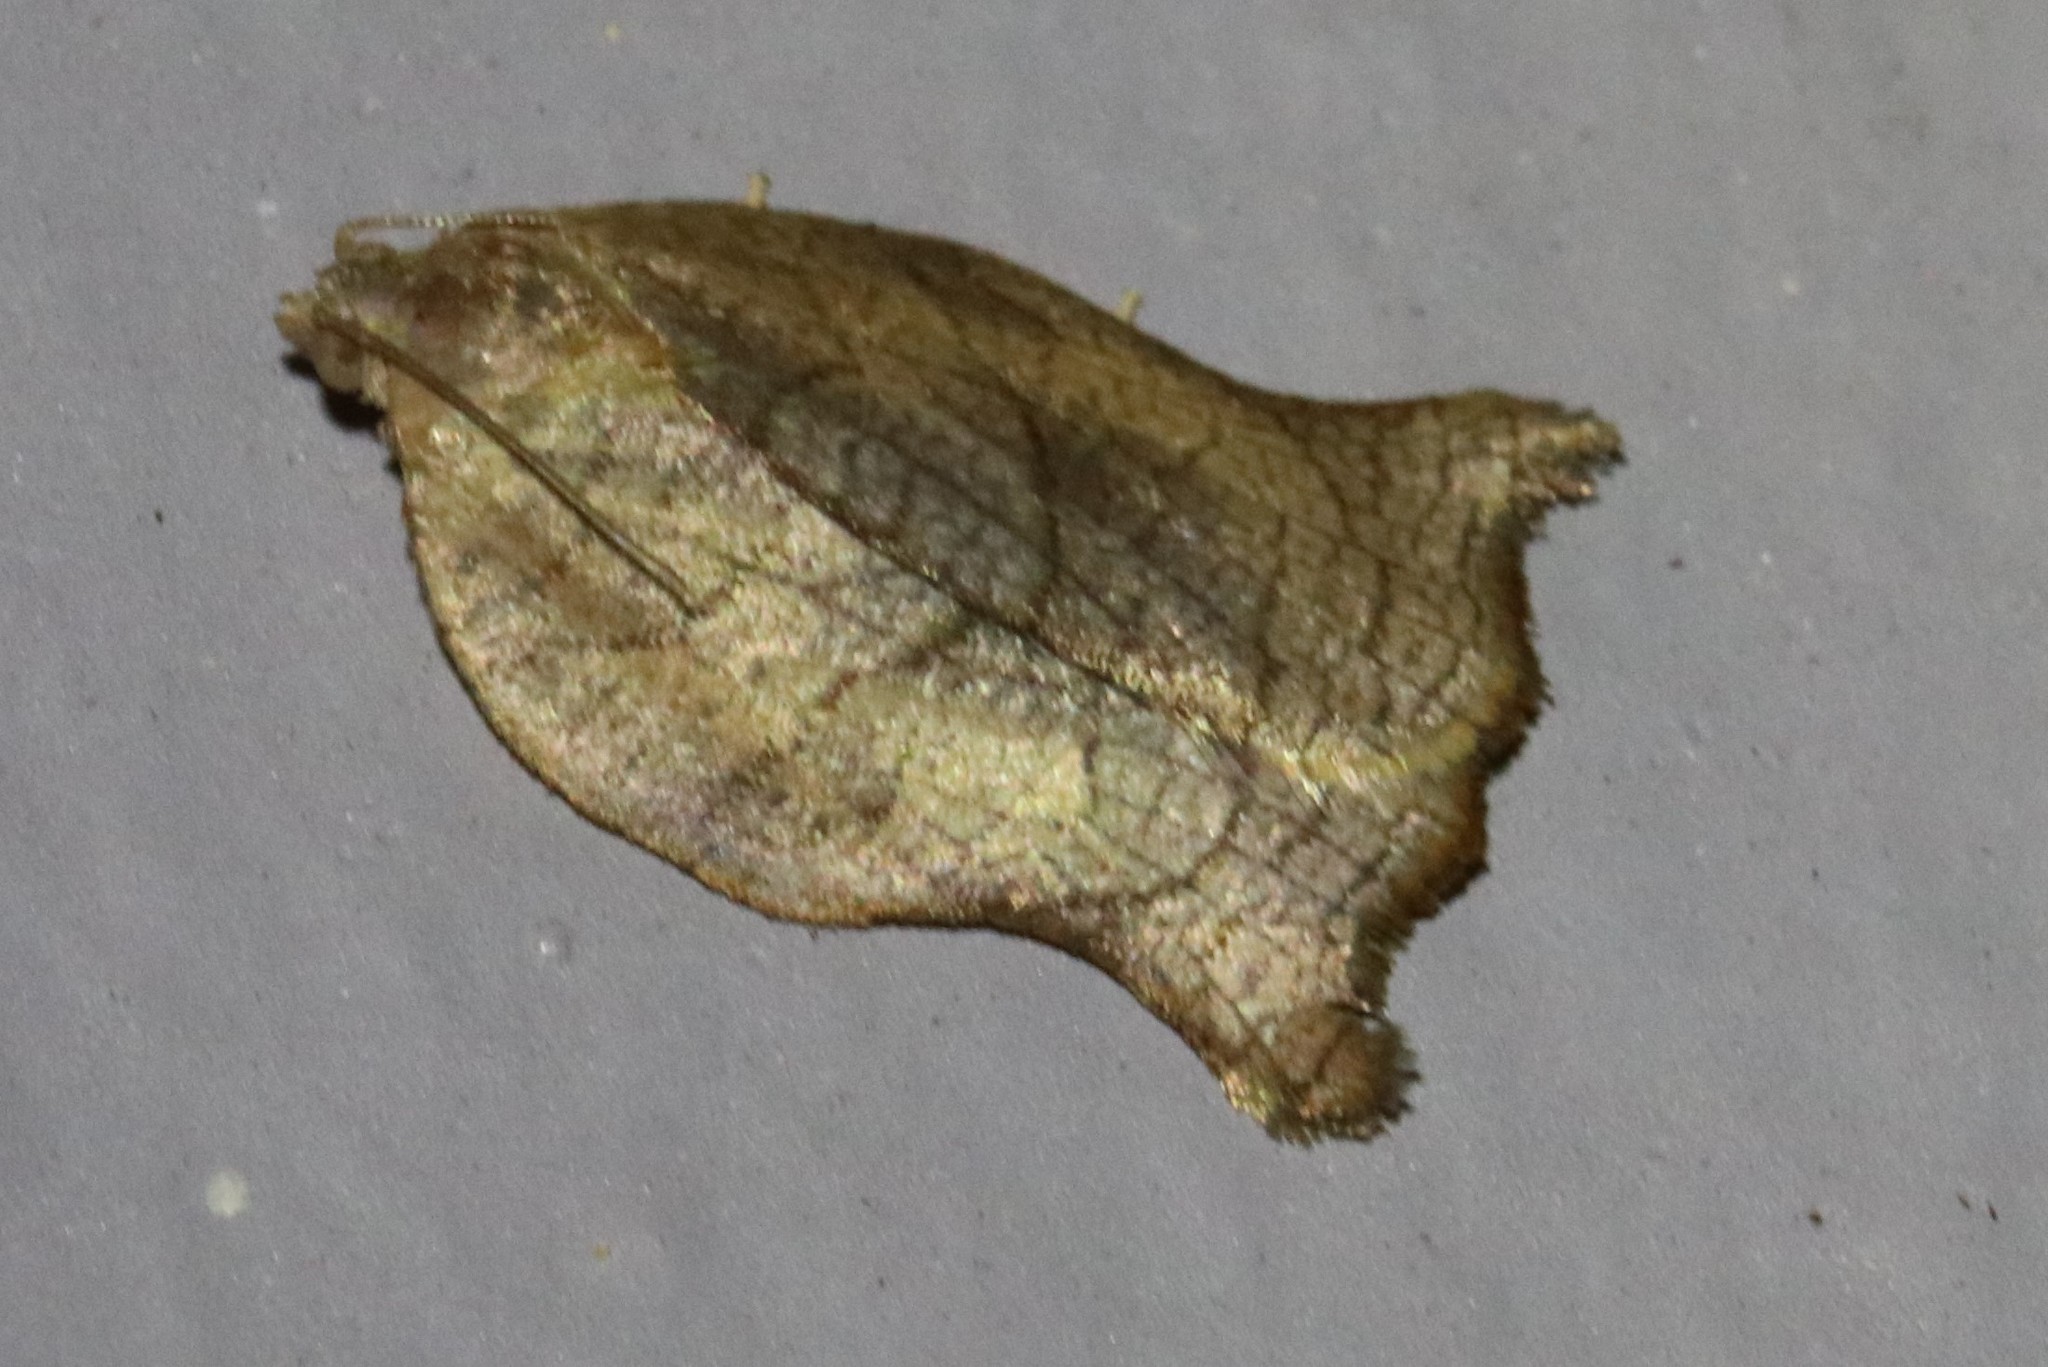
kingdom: Animalia
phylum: Arthropoda
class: Insecta
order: Lepidoptera
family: Tortricidae
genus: Archips
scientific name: Archips purpurana
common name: Omnivorous leafroller
